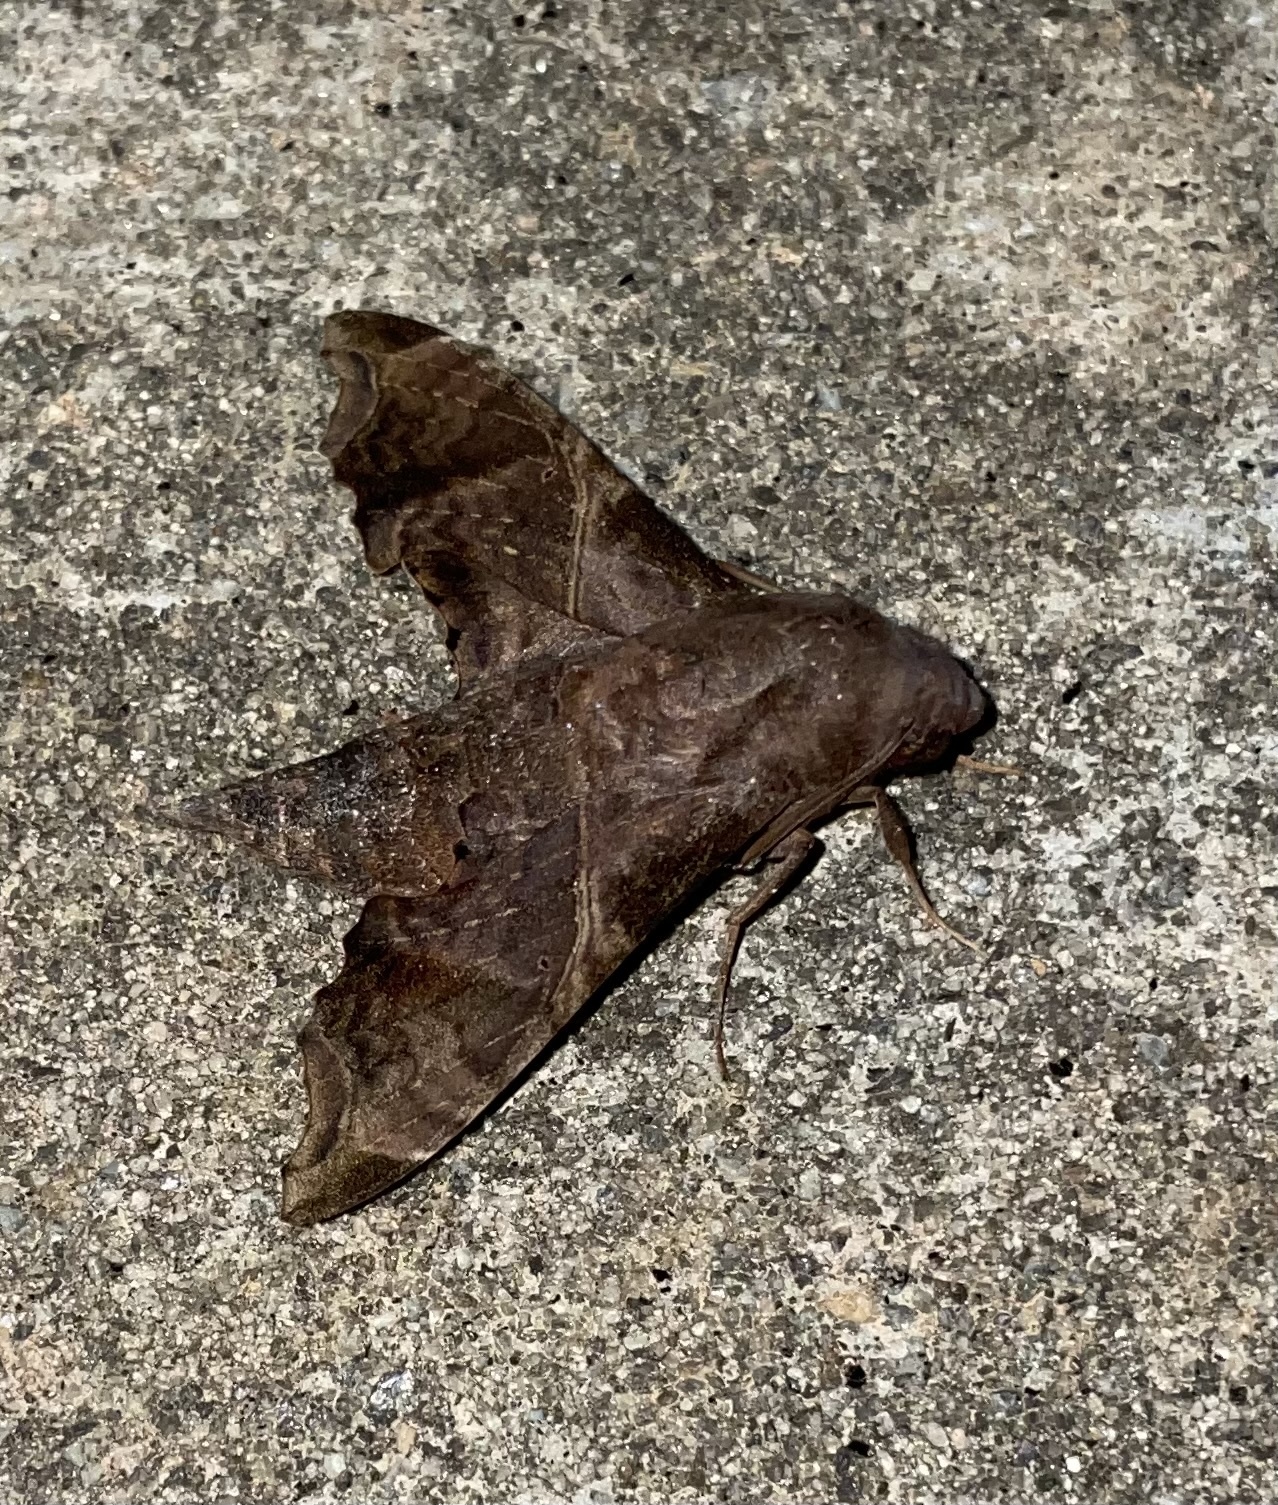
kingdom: Animalia
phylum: Arthropoda
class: Insecta
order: Lepidoptera
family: Sphingidae
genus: Enyo
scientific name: Enyo lugubris
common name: Mournful sphinx
